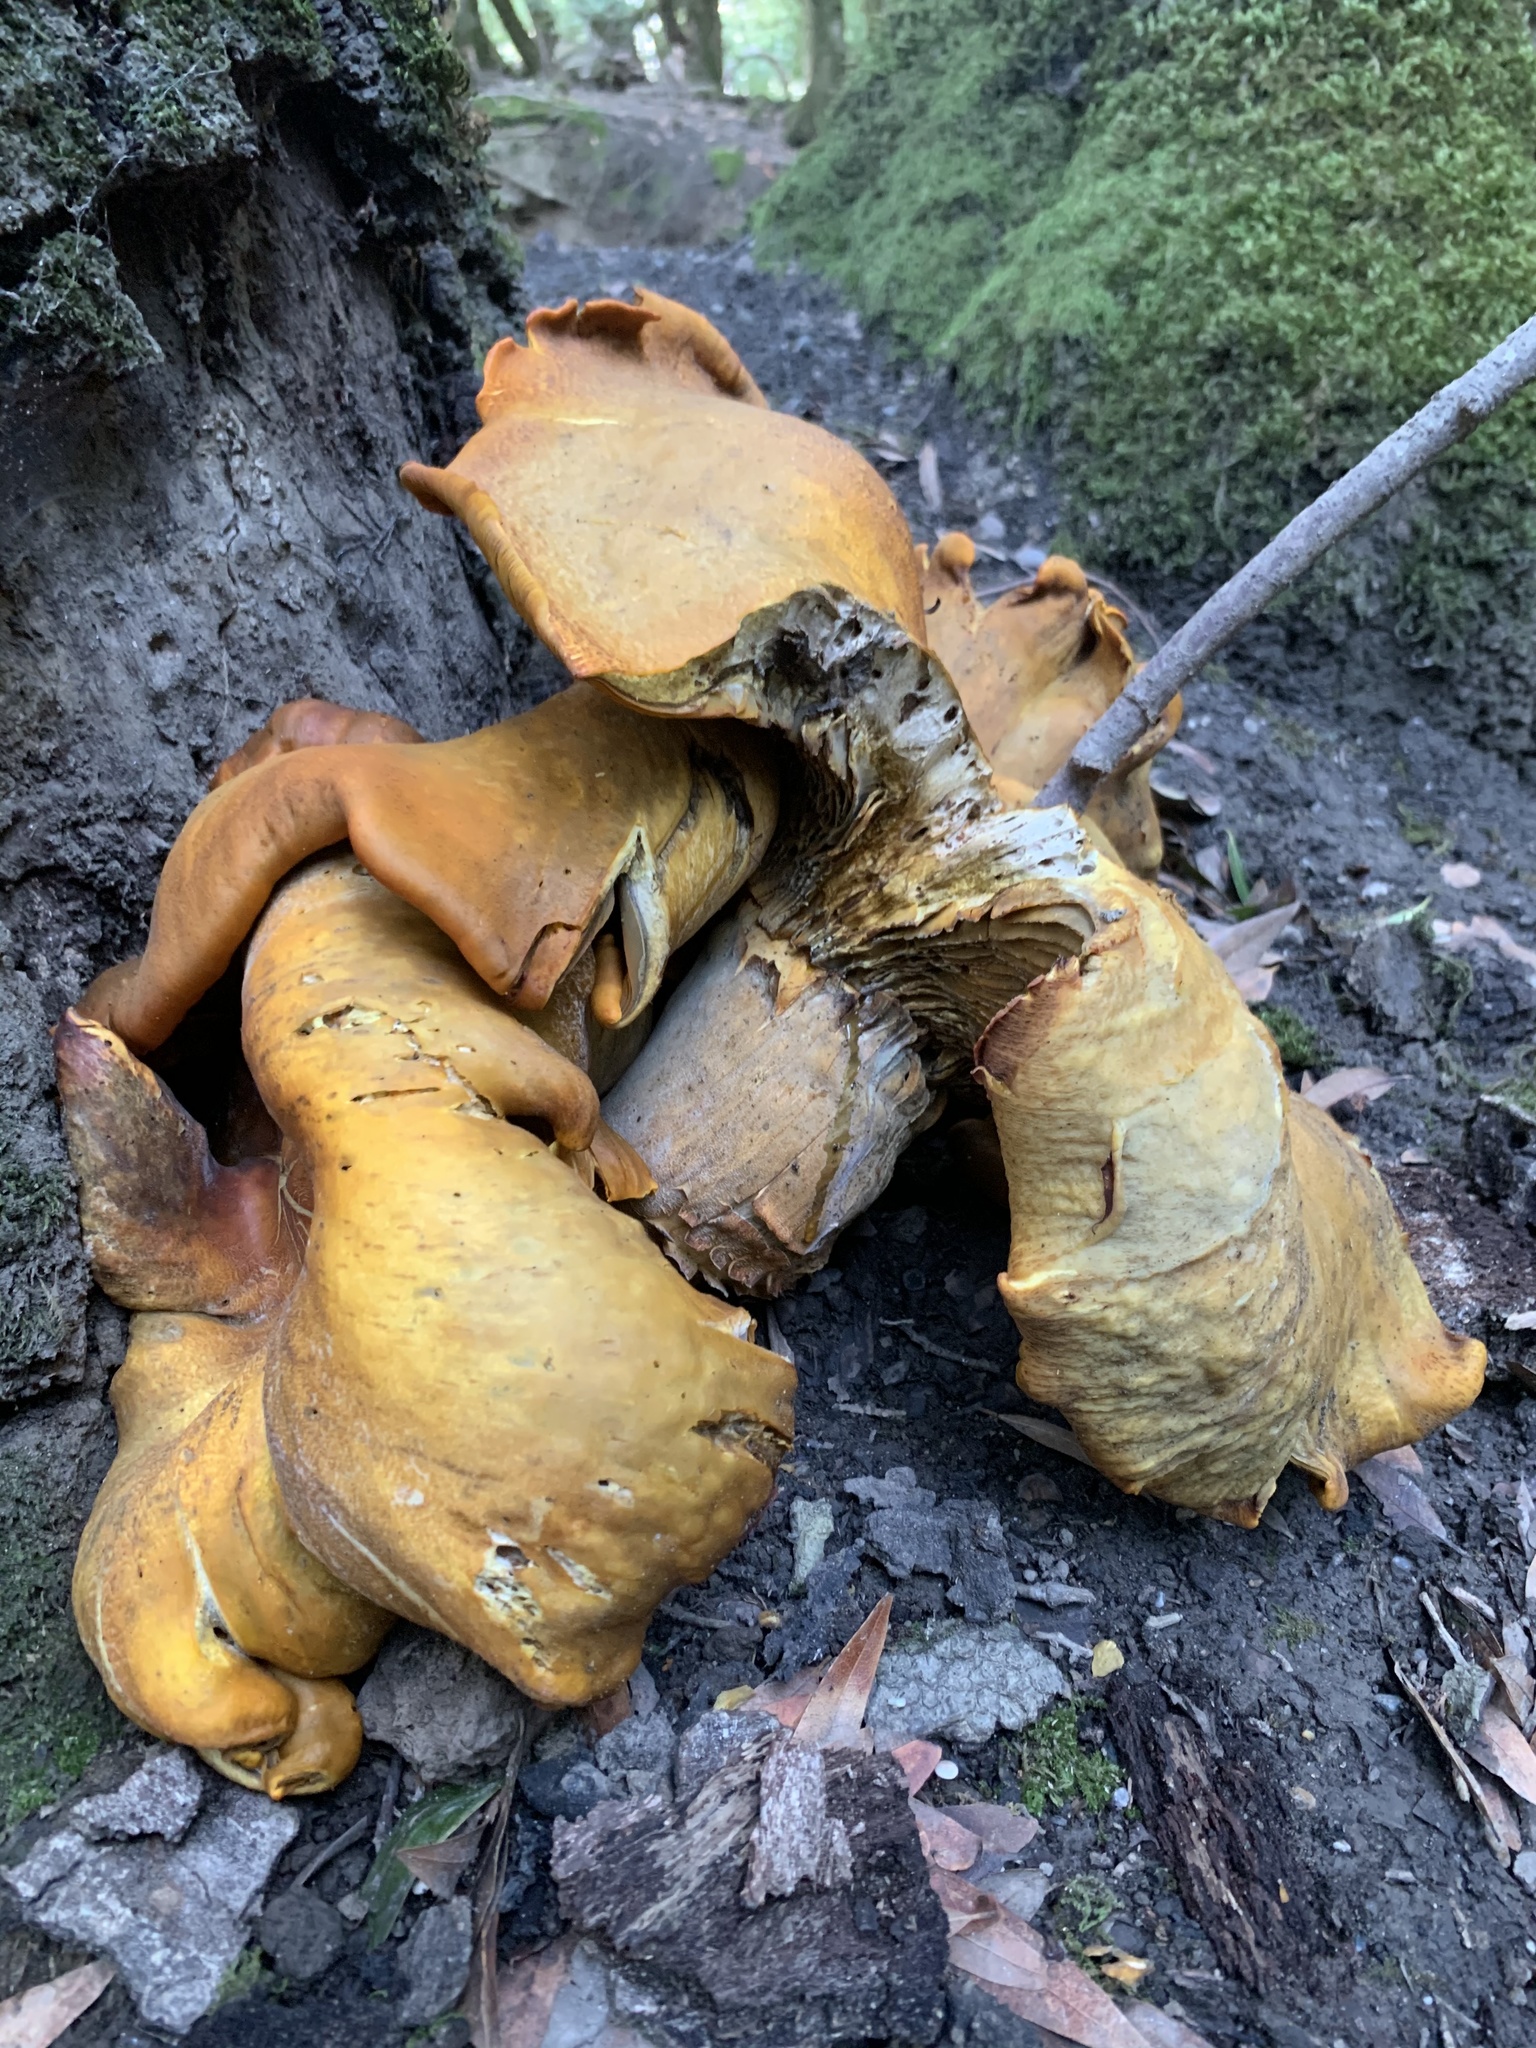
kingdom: Fungi
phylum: Basidiomycota
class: Agaricomycetes
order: Agaricales
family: Omphalotaceae
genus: Omphalotus
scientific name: Omphalotus olivascens
